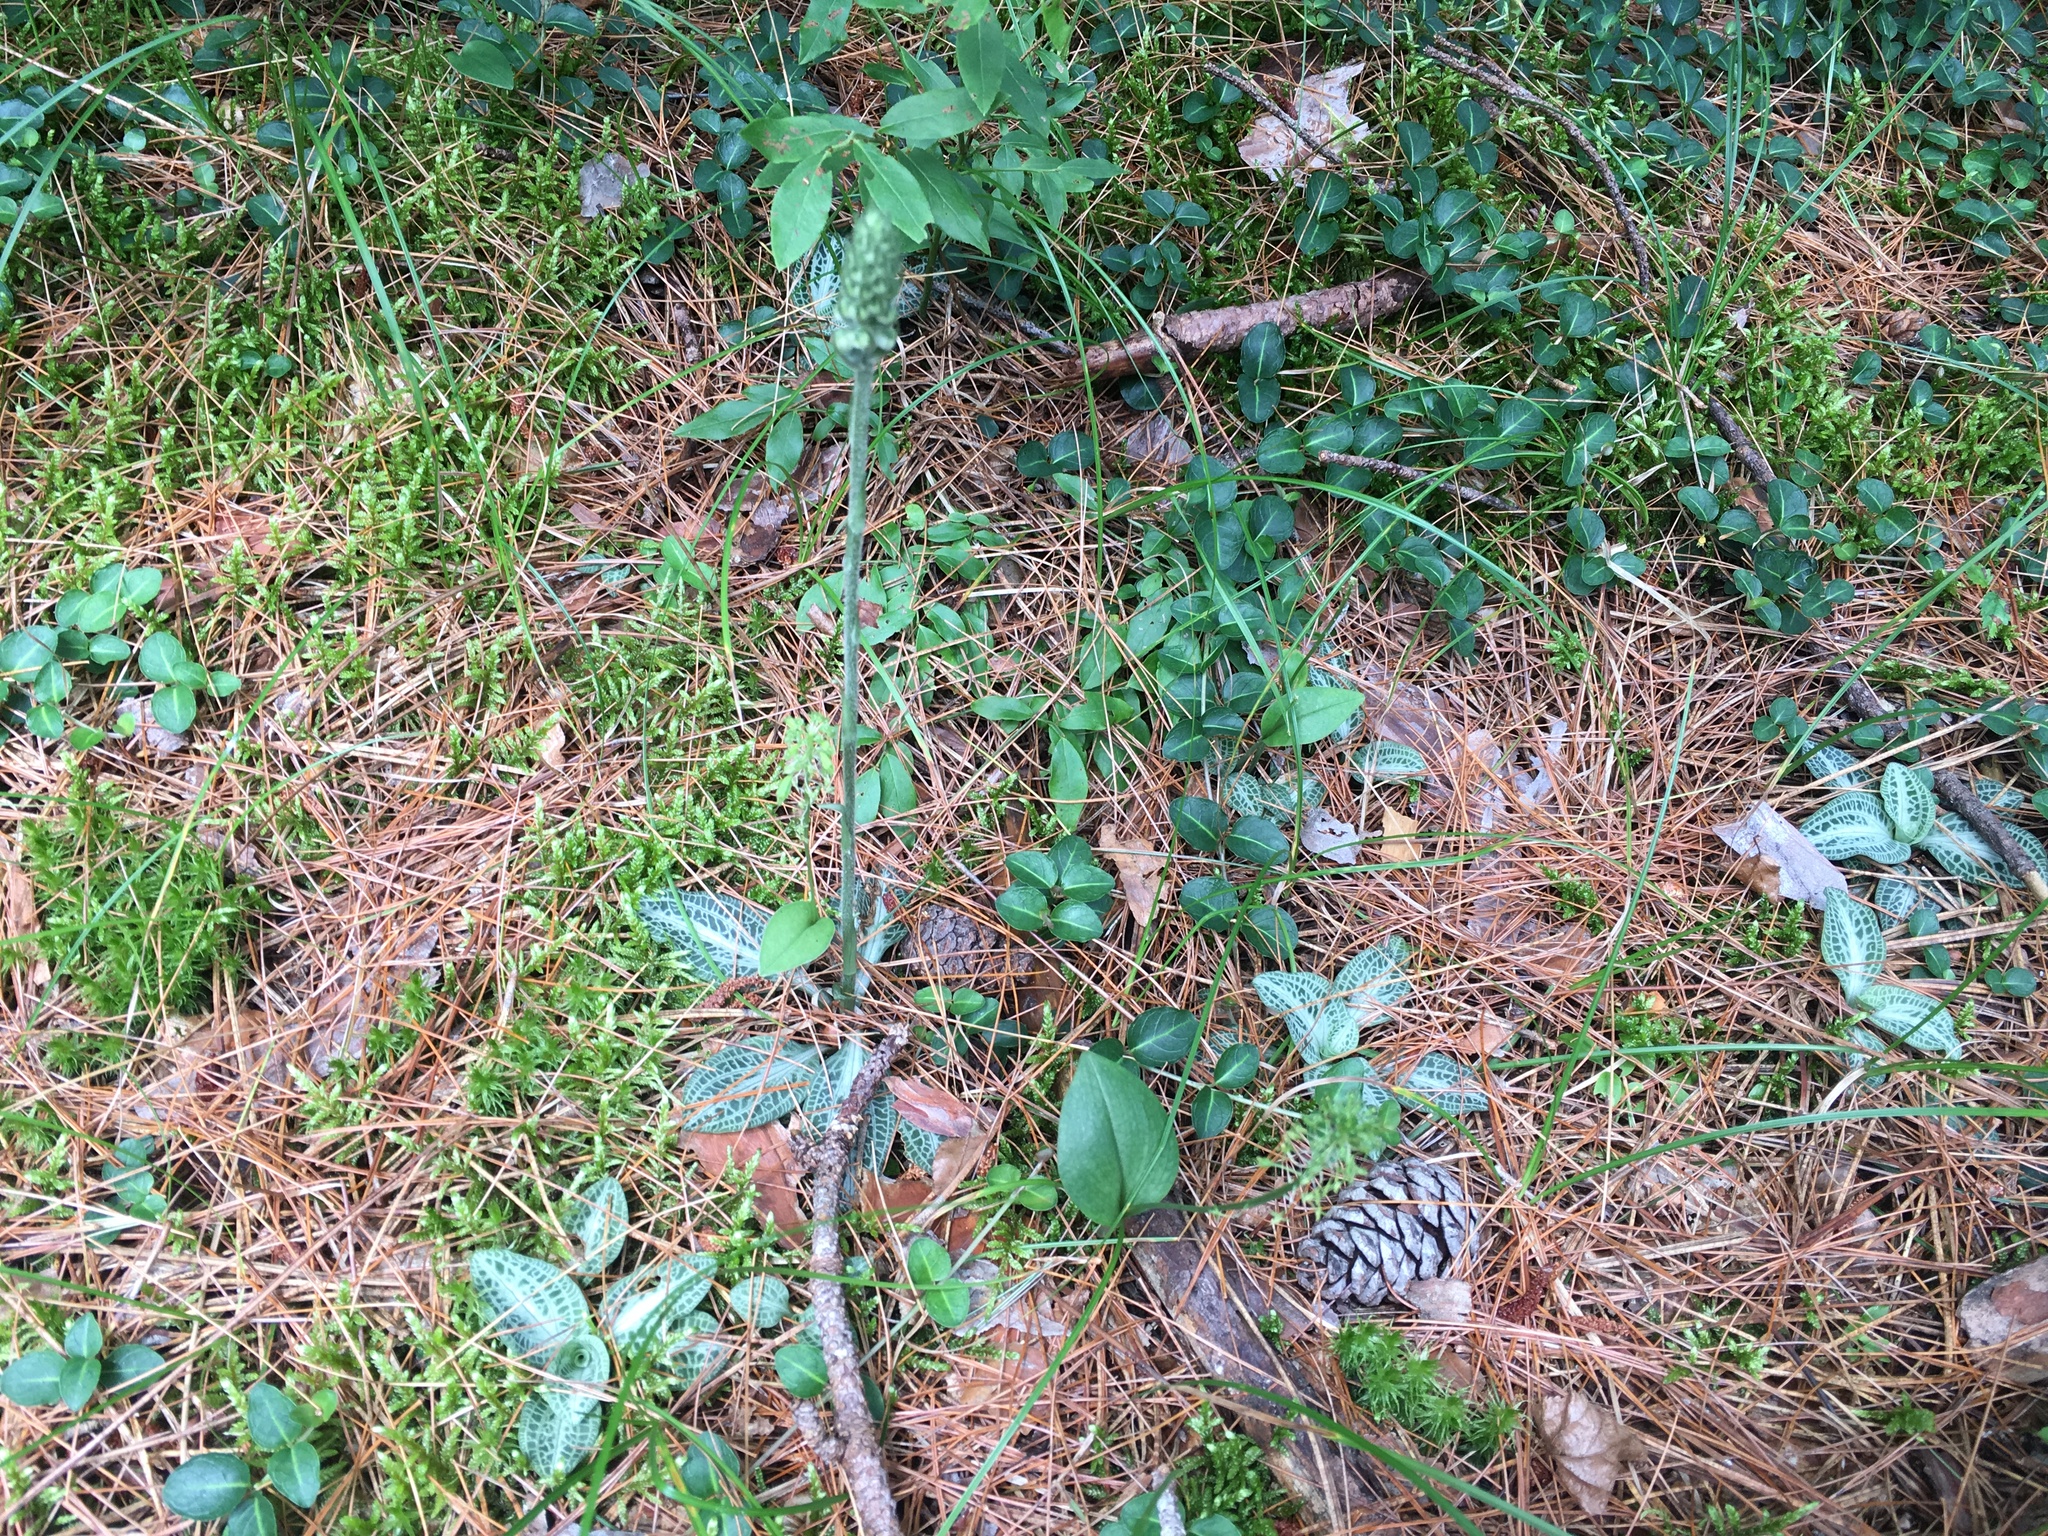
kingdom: Plantae
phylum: Tracheophyta
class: Liliopsida
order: Asparagales
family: Orchidaceae
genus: Goodyera
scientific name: Goodyera pubescens
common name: Downy rattlesnake-plantain
